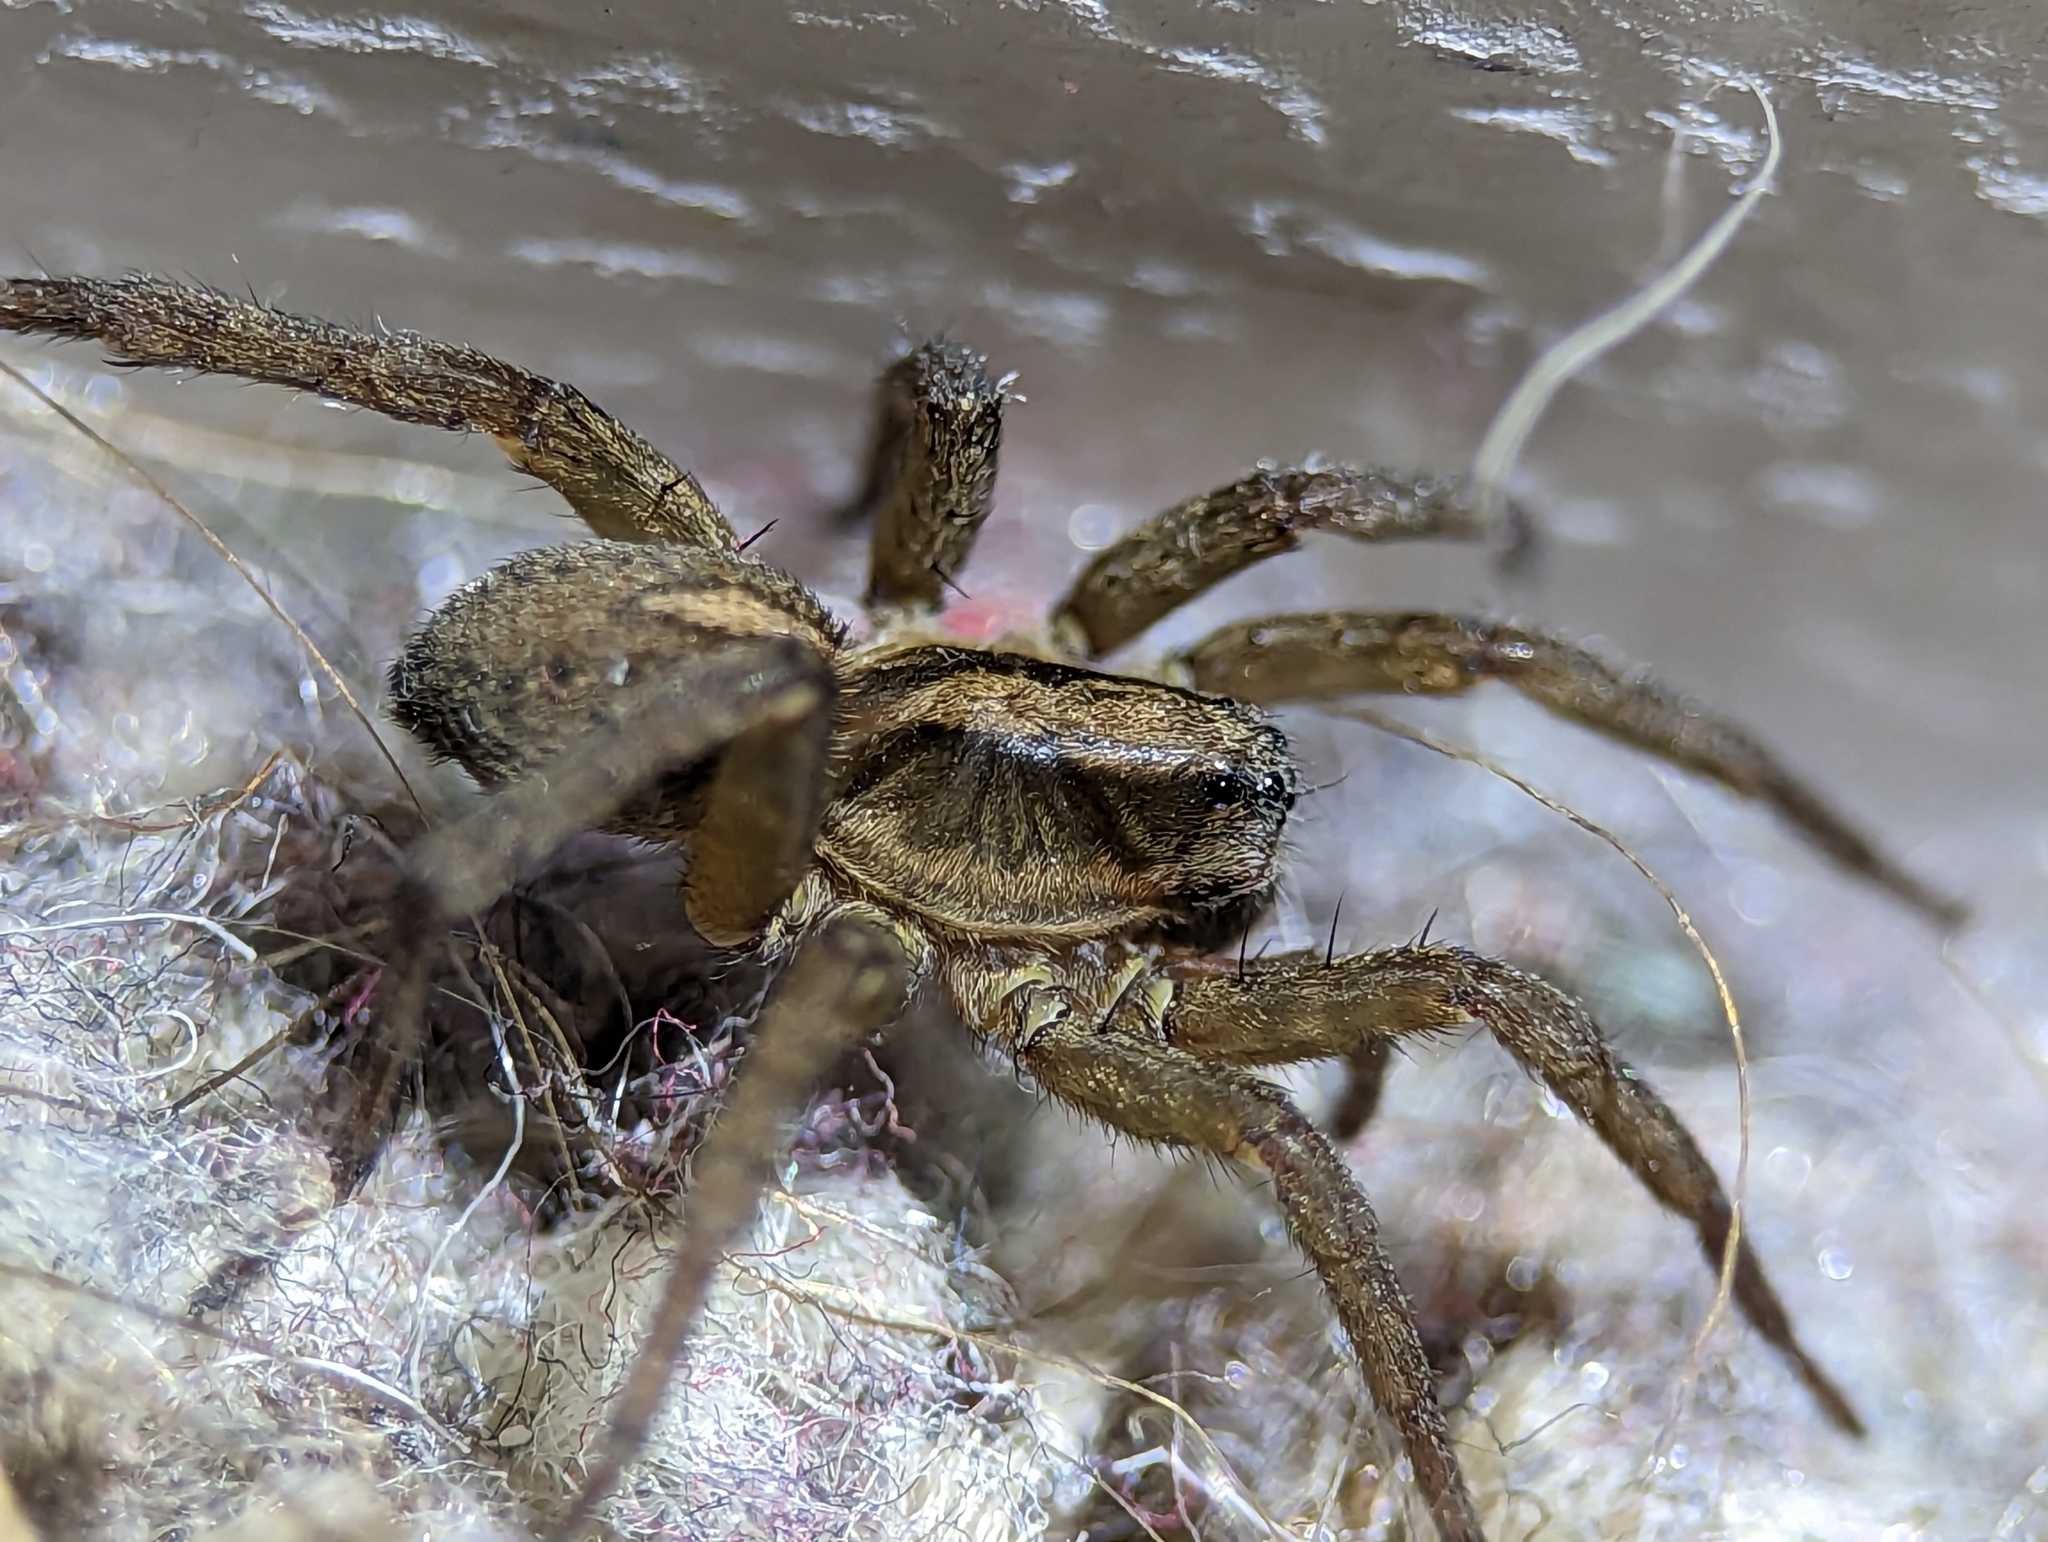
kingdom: Animalia
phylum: Arthropoda
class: Arachnida
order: Araneae
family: Lycosidae
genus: Trochosa
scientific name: Trochosa ruricola
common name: Spider
